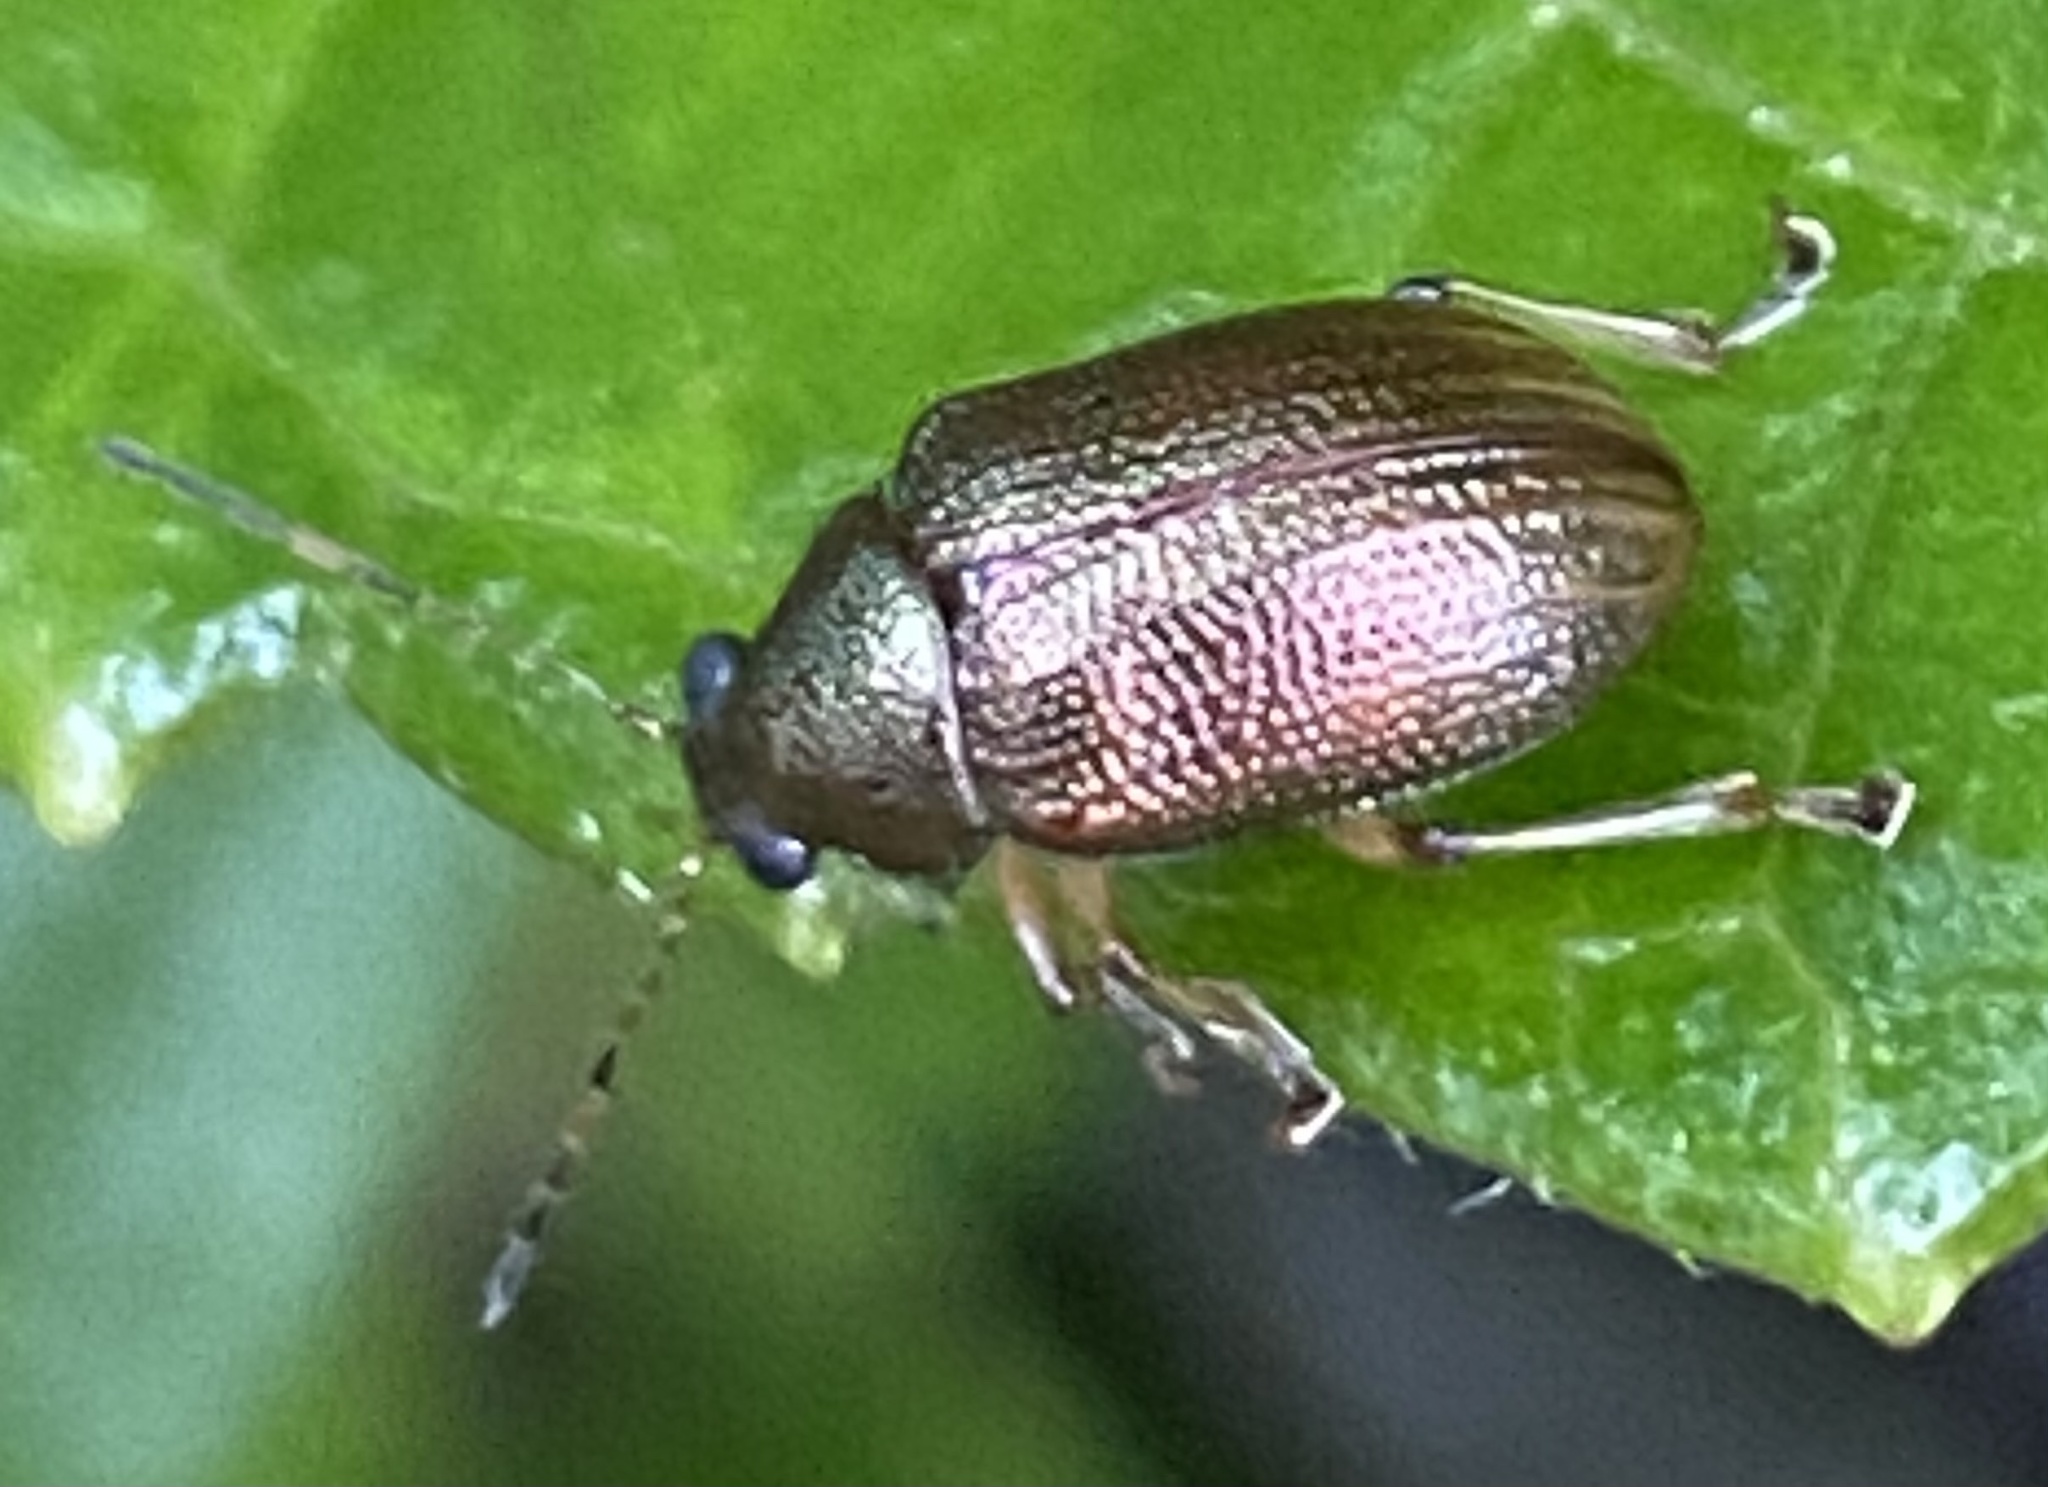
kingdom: Animalia
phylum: Arthropoda
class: Insecta
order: Coleoptera
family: Chrysomelidae
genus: Colaspis
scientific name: Colaspis aerea
